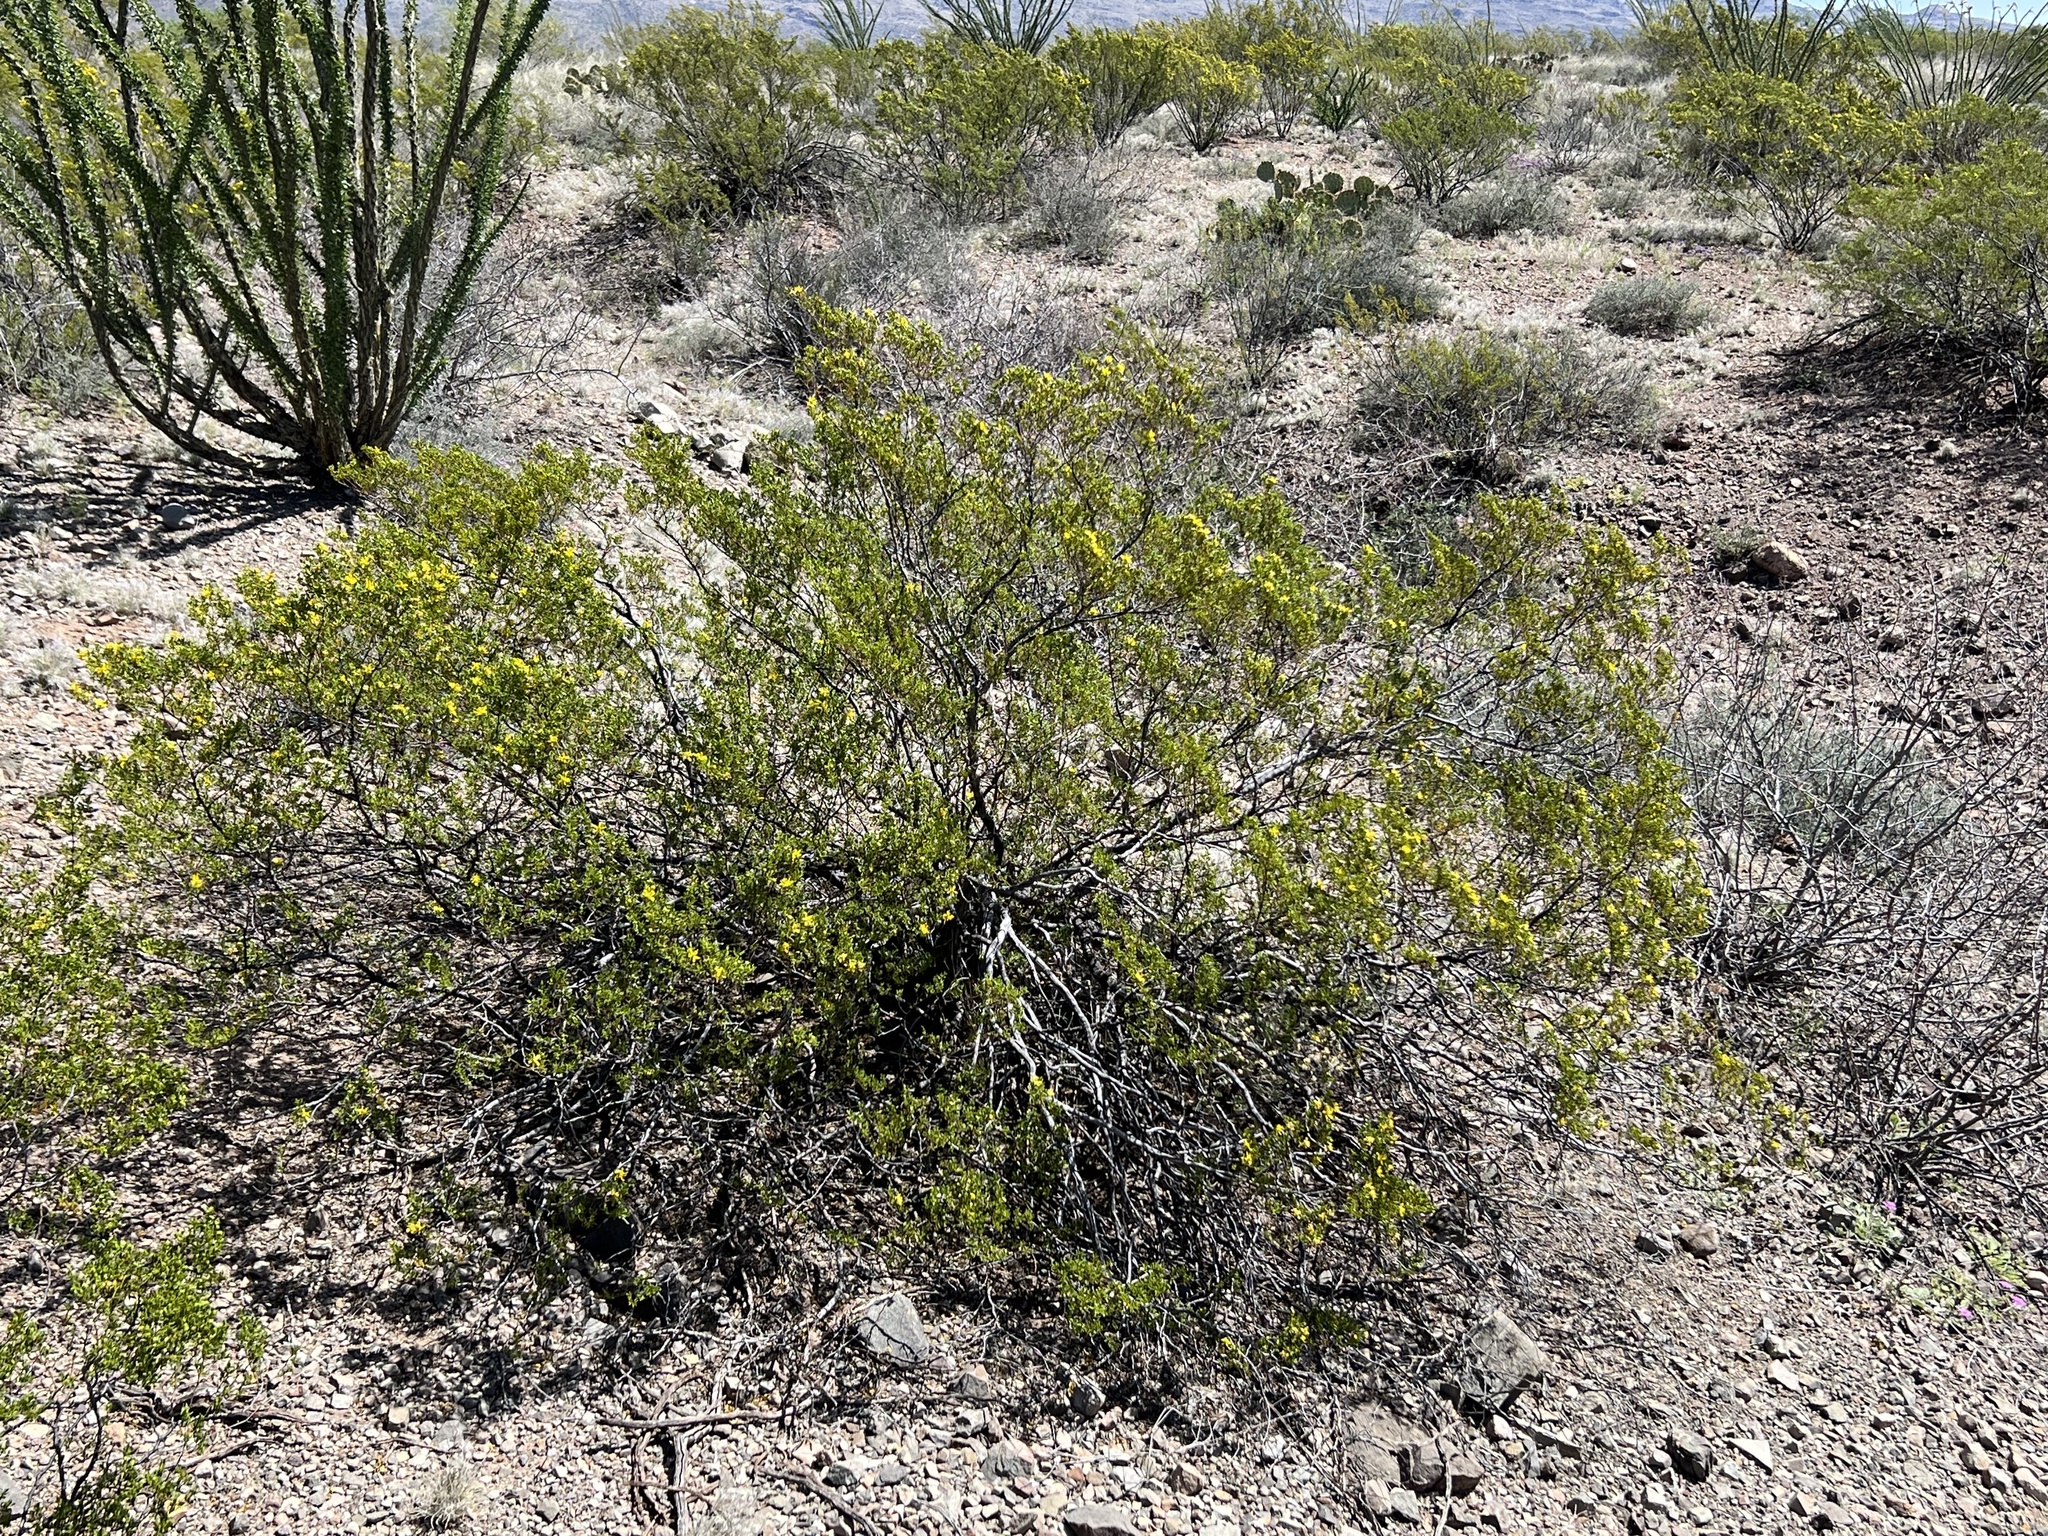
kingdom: Plantae
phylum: Tracheophyta
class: Magnoliopsida
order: Zygophyllales
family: Zygophyllaceae
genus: Larrea
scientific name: Larrea tridentata
